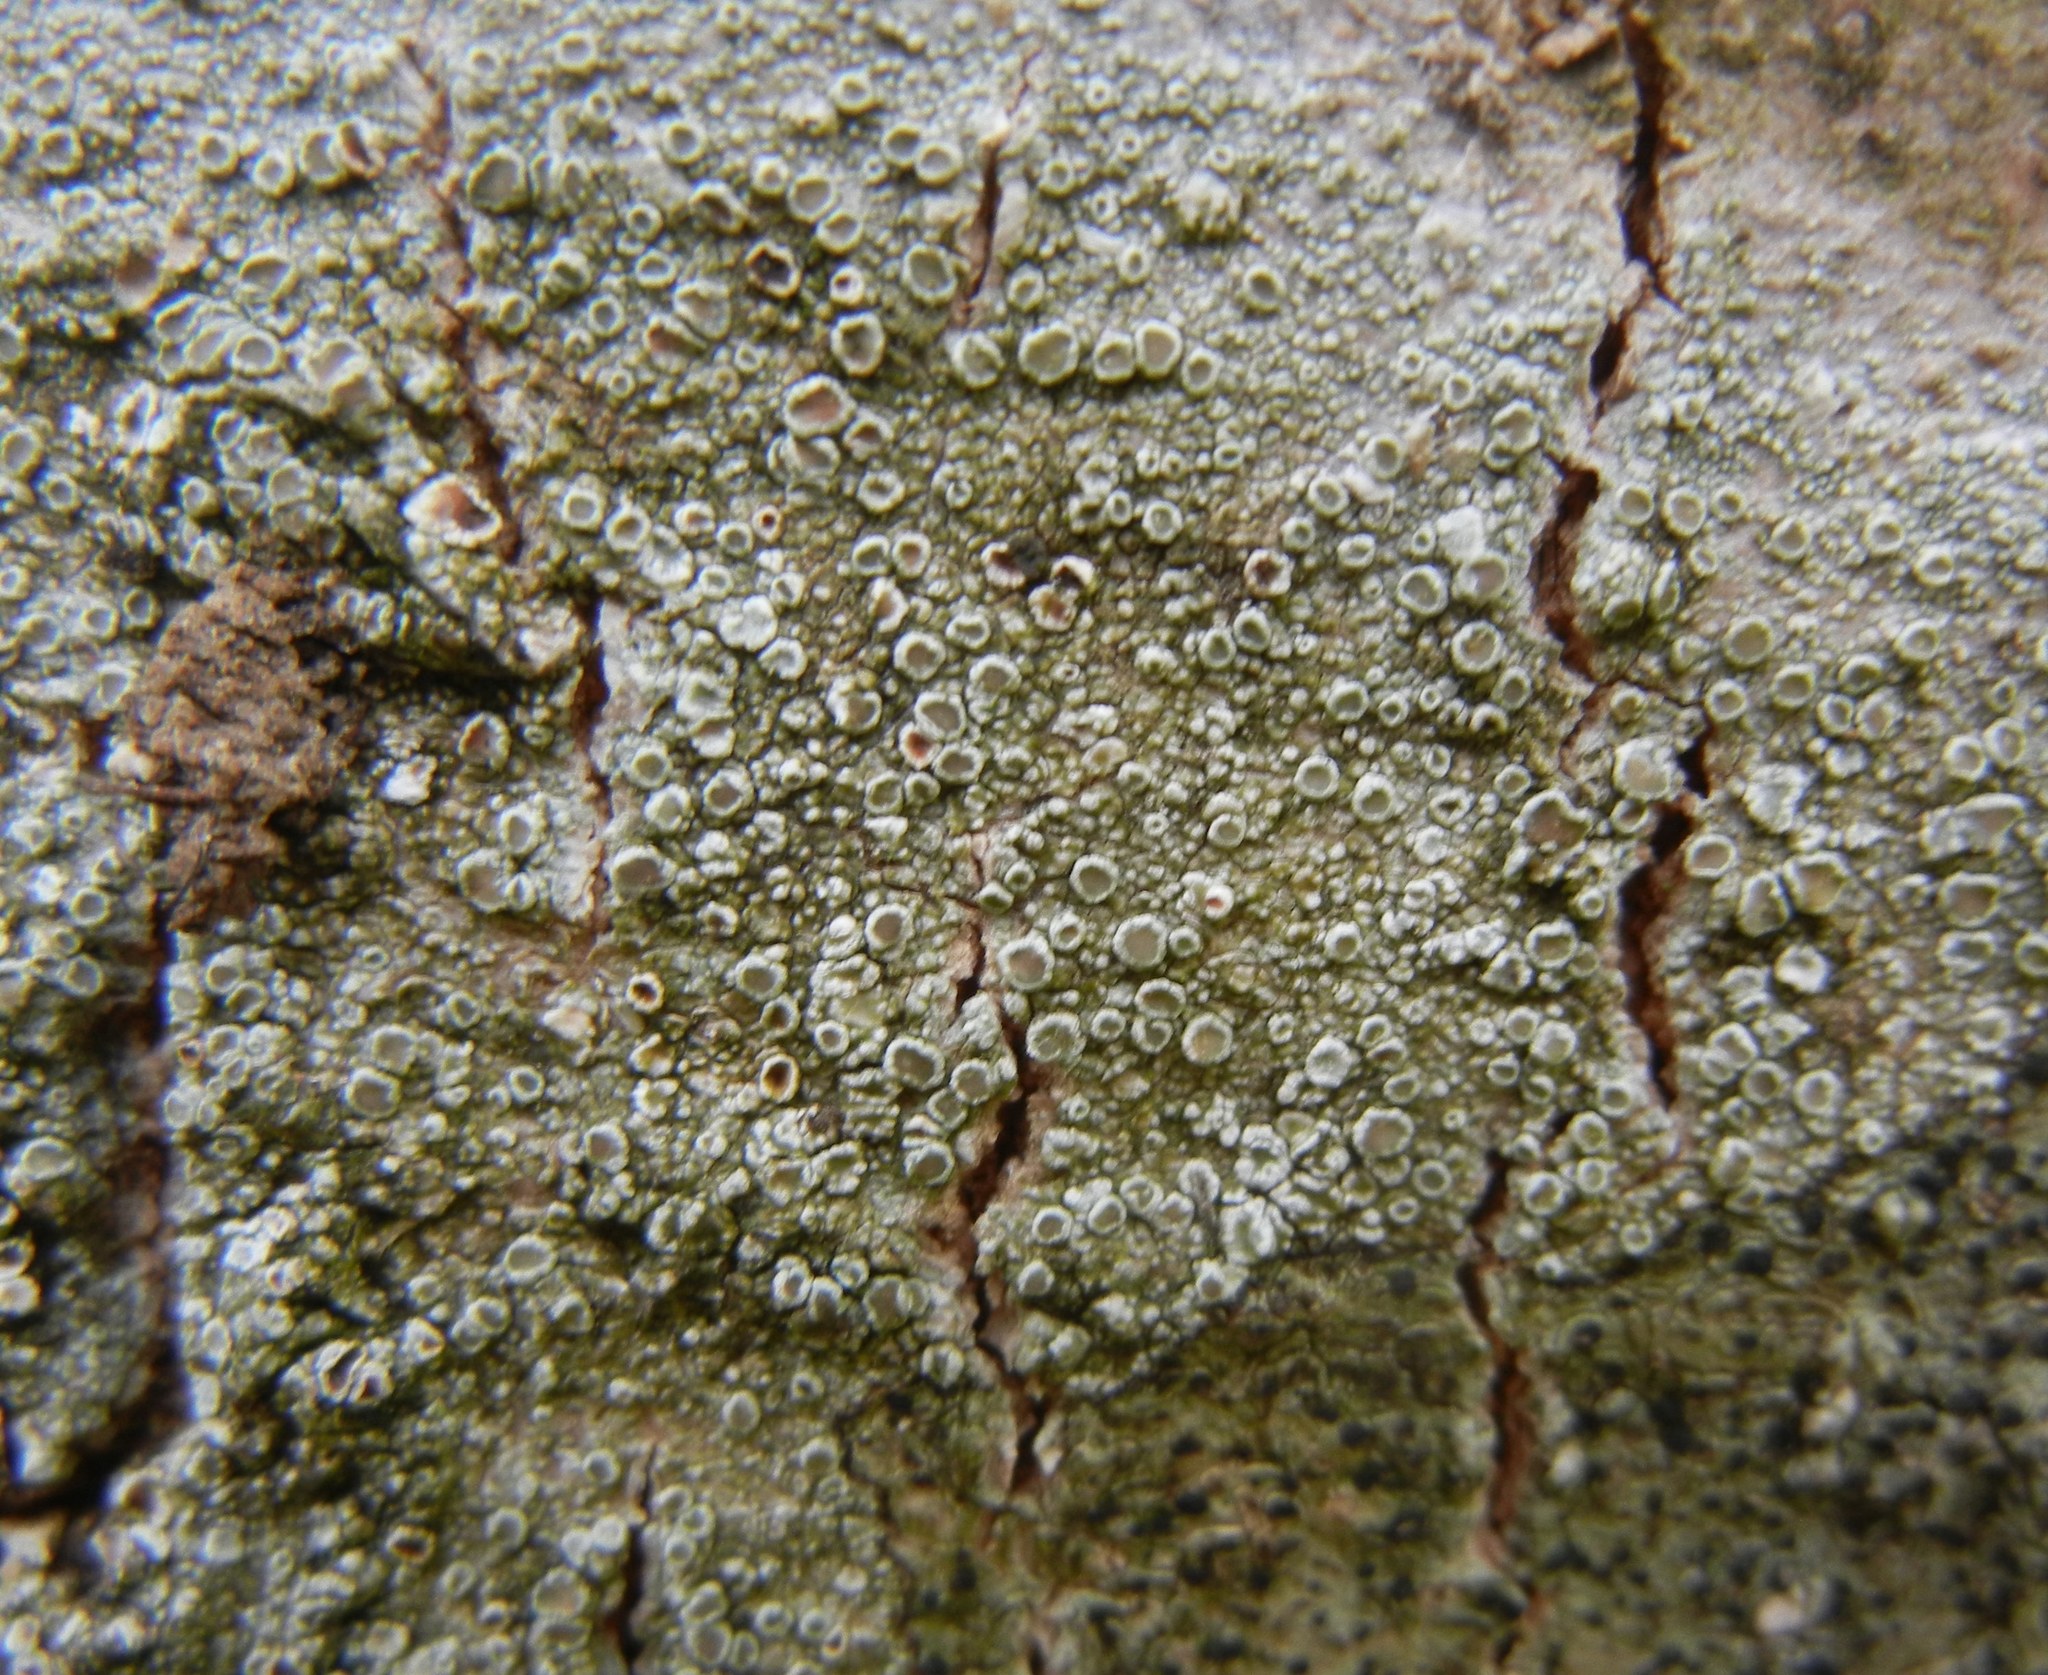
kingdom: Fungi
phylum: Ascomycota
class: Lecanoromycetes
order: Lecanorales
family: Lecanoraceae
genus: Lecanora
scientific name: Lecanora chlarotera
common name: Brown rim-lichen
